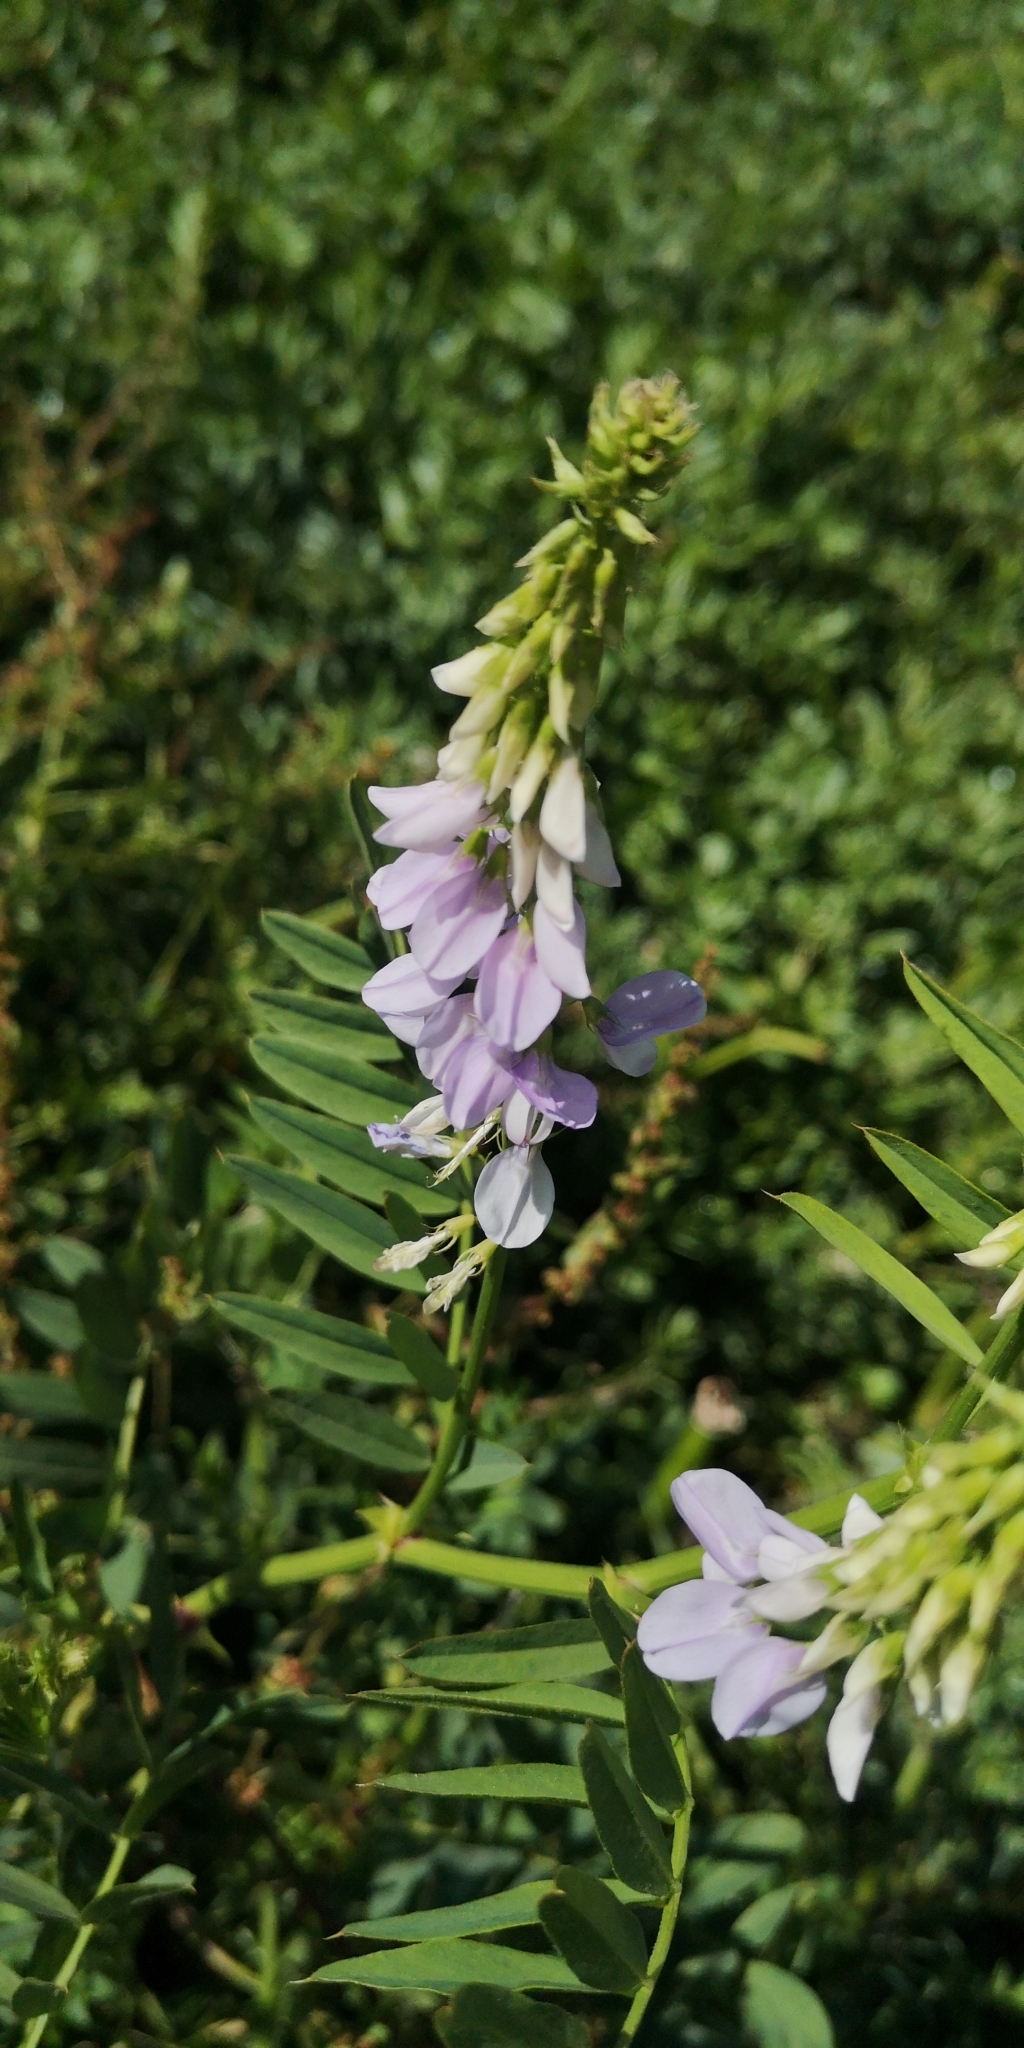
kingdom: Plantae
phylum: Tracheophyta
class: Magnoliopsida
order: Fabales
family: Fabaceae
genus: Galega
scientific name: Galega officinalis
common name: Goat's-rue
